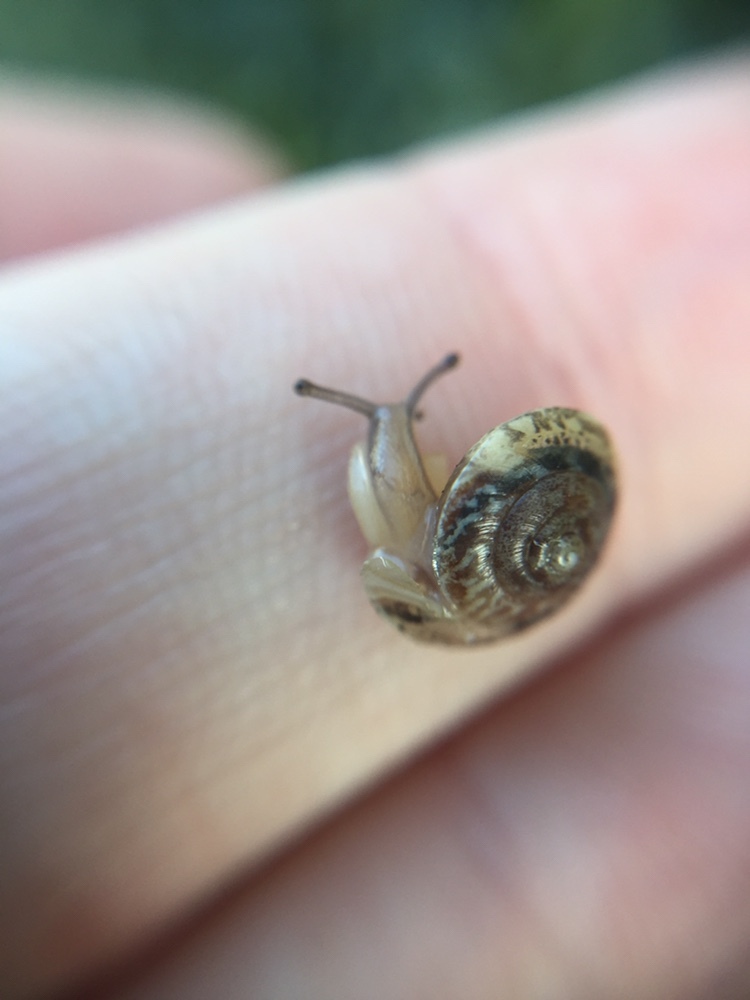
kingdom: Animalia
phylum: Mollusca
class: Gastropoda
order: Stylommatophora
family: Hygromiidae
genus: Hygromia
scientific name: Hygromia cinctella
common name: Girdled snail
